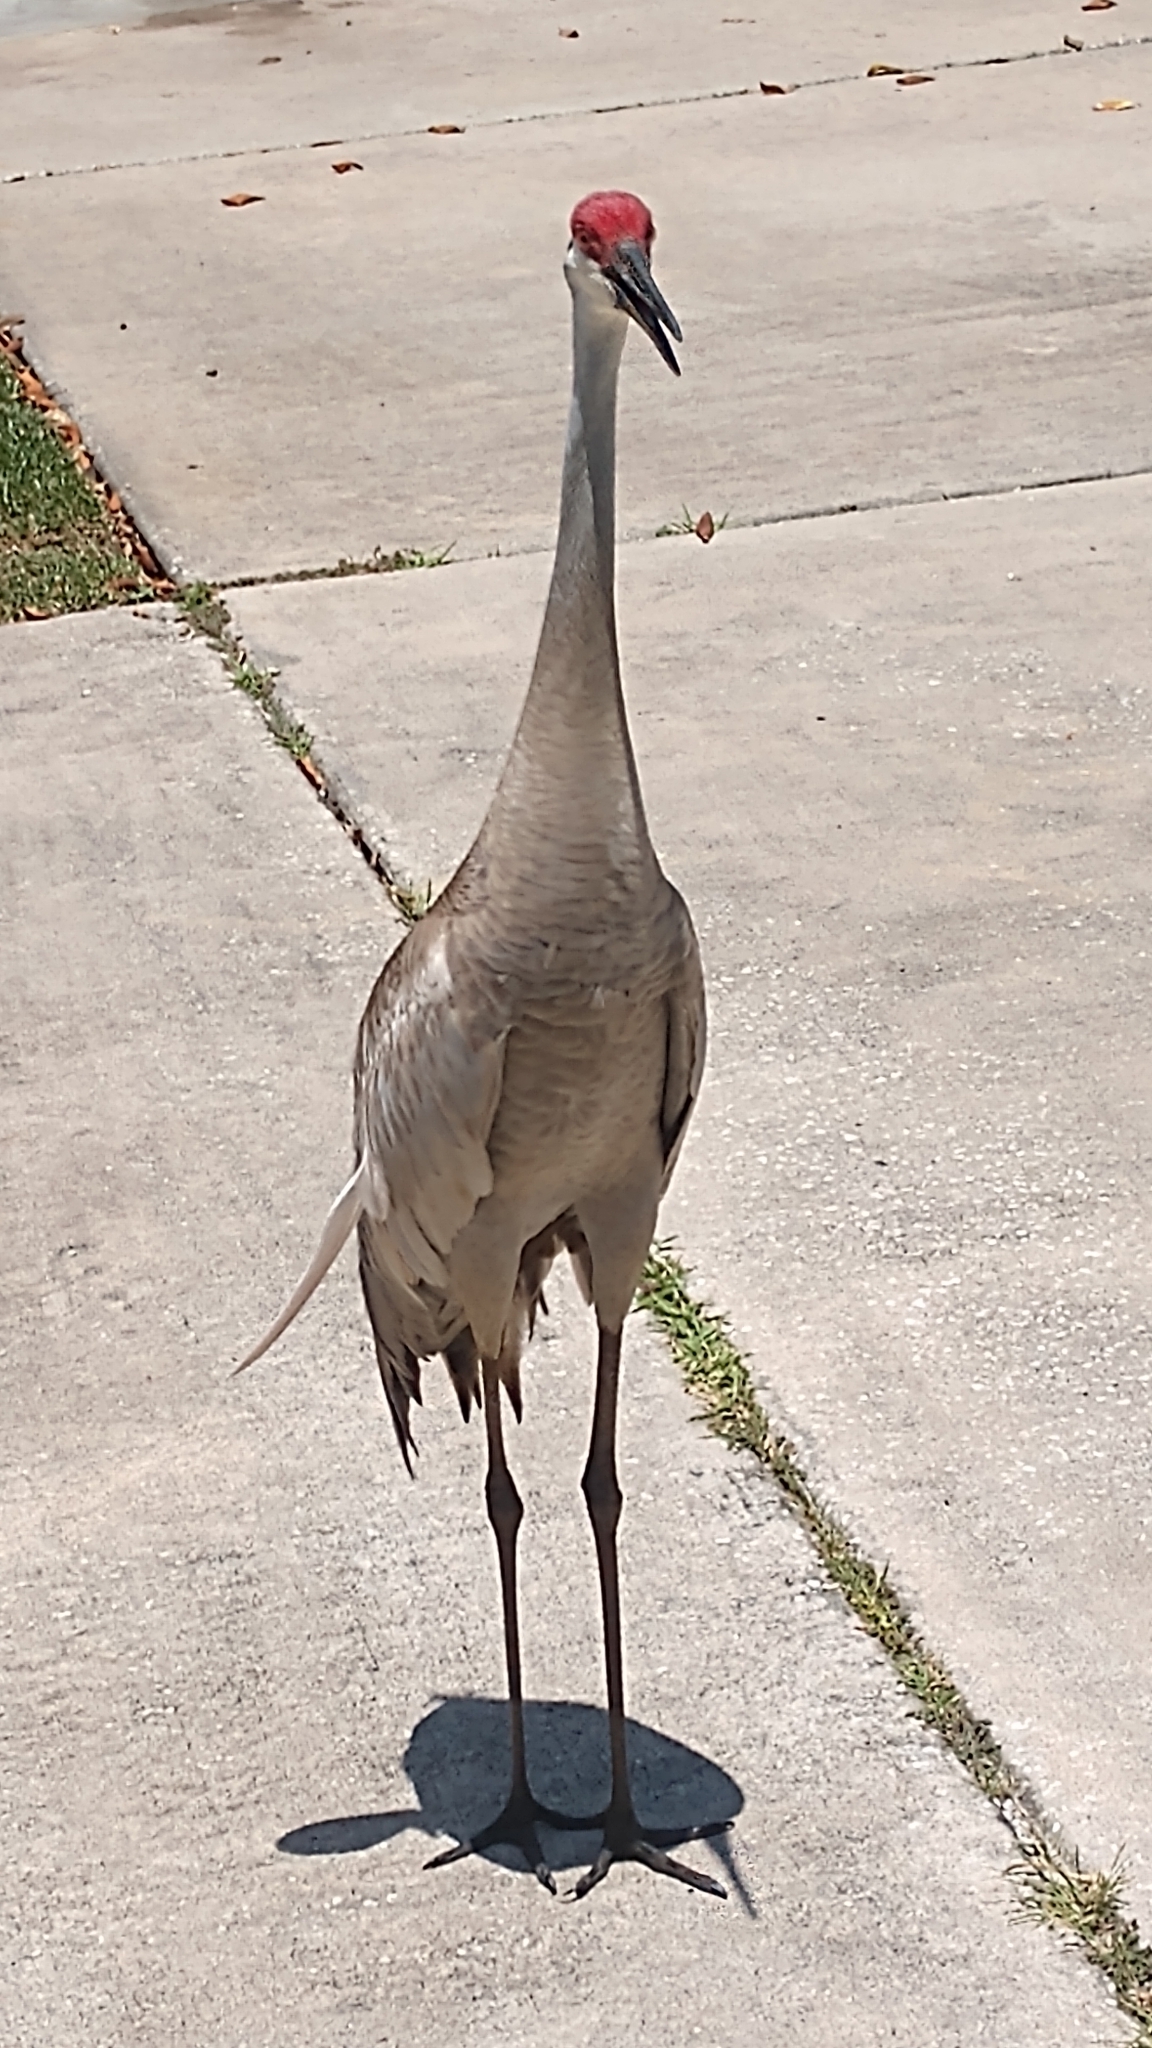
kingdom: Animalia
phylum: Chordata
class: Aves
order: Gruiformes
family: Gruidae
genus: Grus
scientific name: Grus canadensis
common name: Sandhill crane
